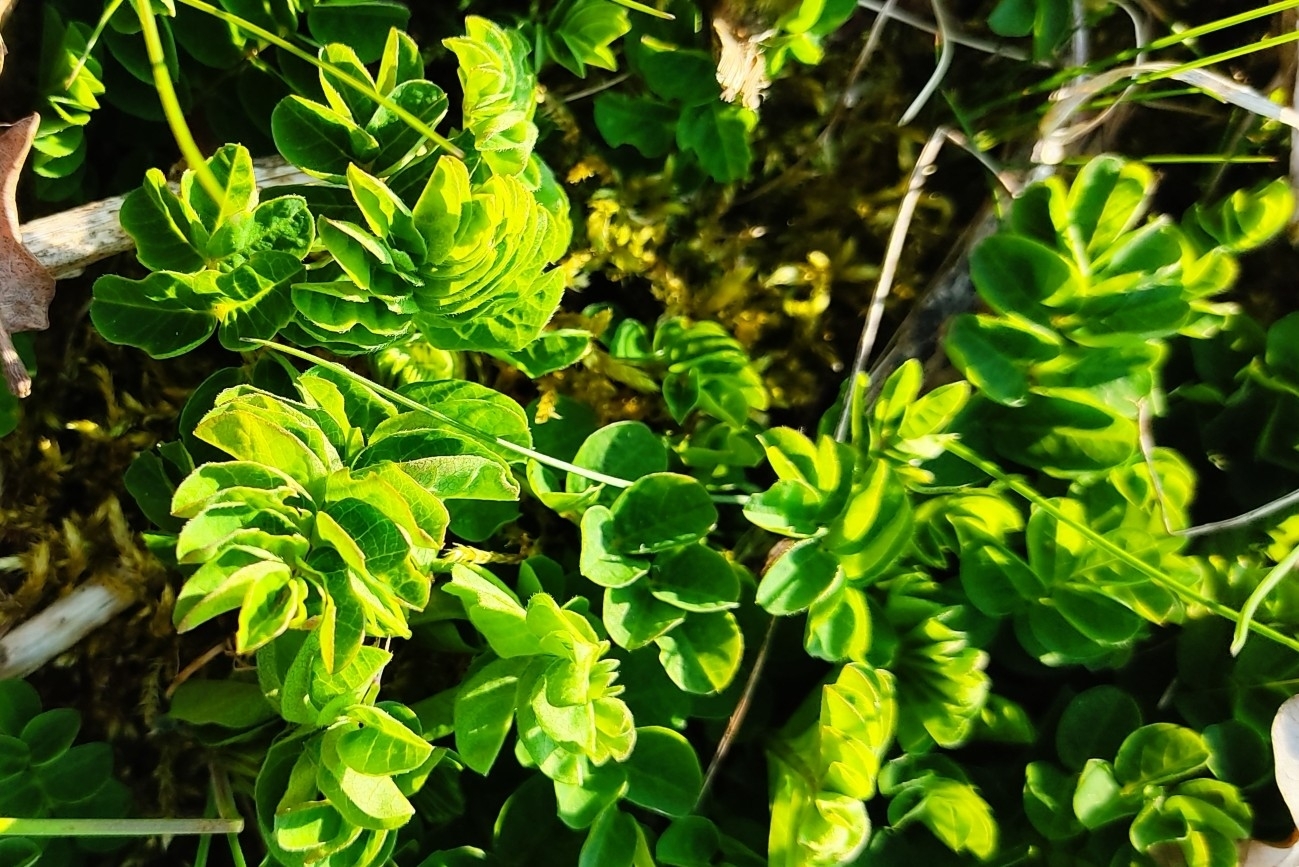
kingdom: Plantae
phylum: Tracheophyta
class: Magnoliopsida
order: Fabales
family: Fabaceae
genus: Astragalus
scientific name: Astragalus glycyphyllos
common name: Wild liquorice
